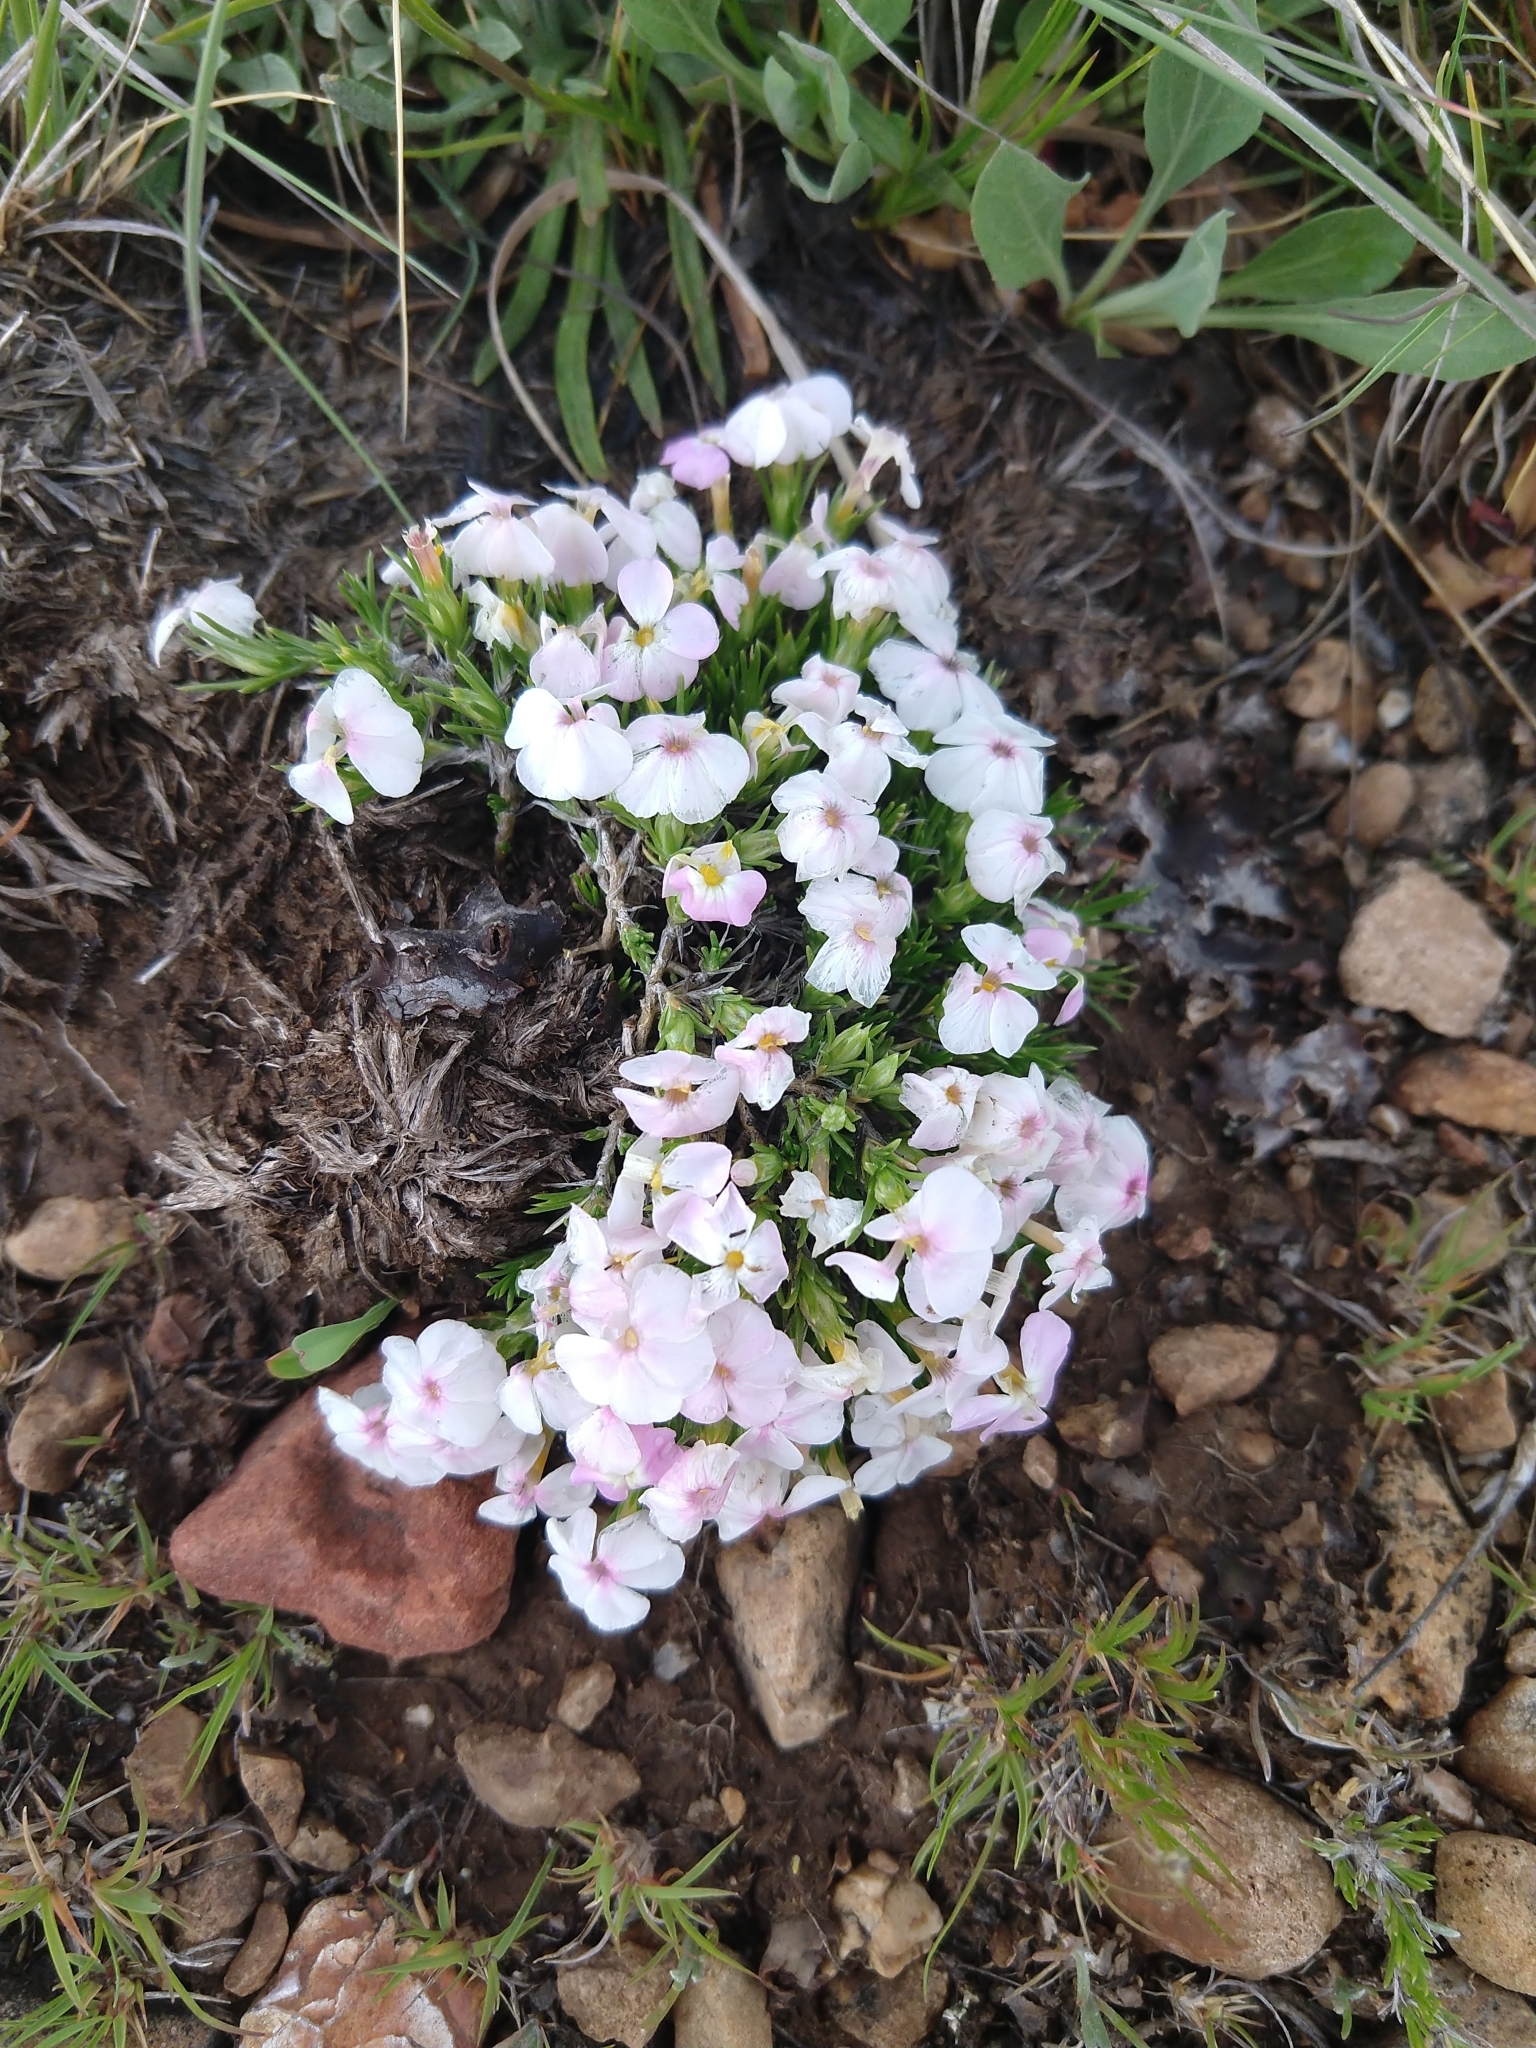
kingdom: Plantae
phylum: Tracheophyta
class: Magnoliopsida
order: Ericales
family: Polemoniaceae
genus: Phlox
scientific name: Phlox austromontana
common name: Desert phlox
